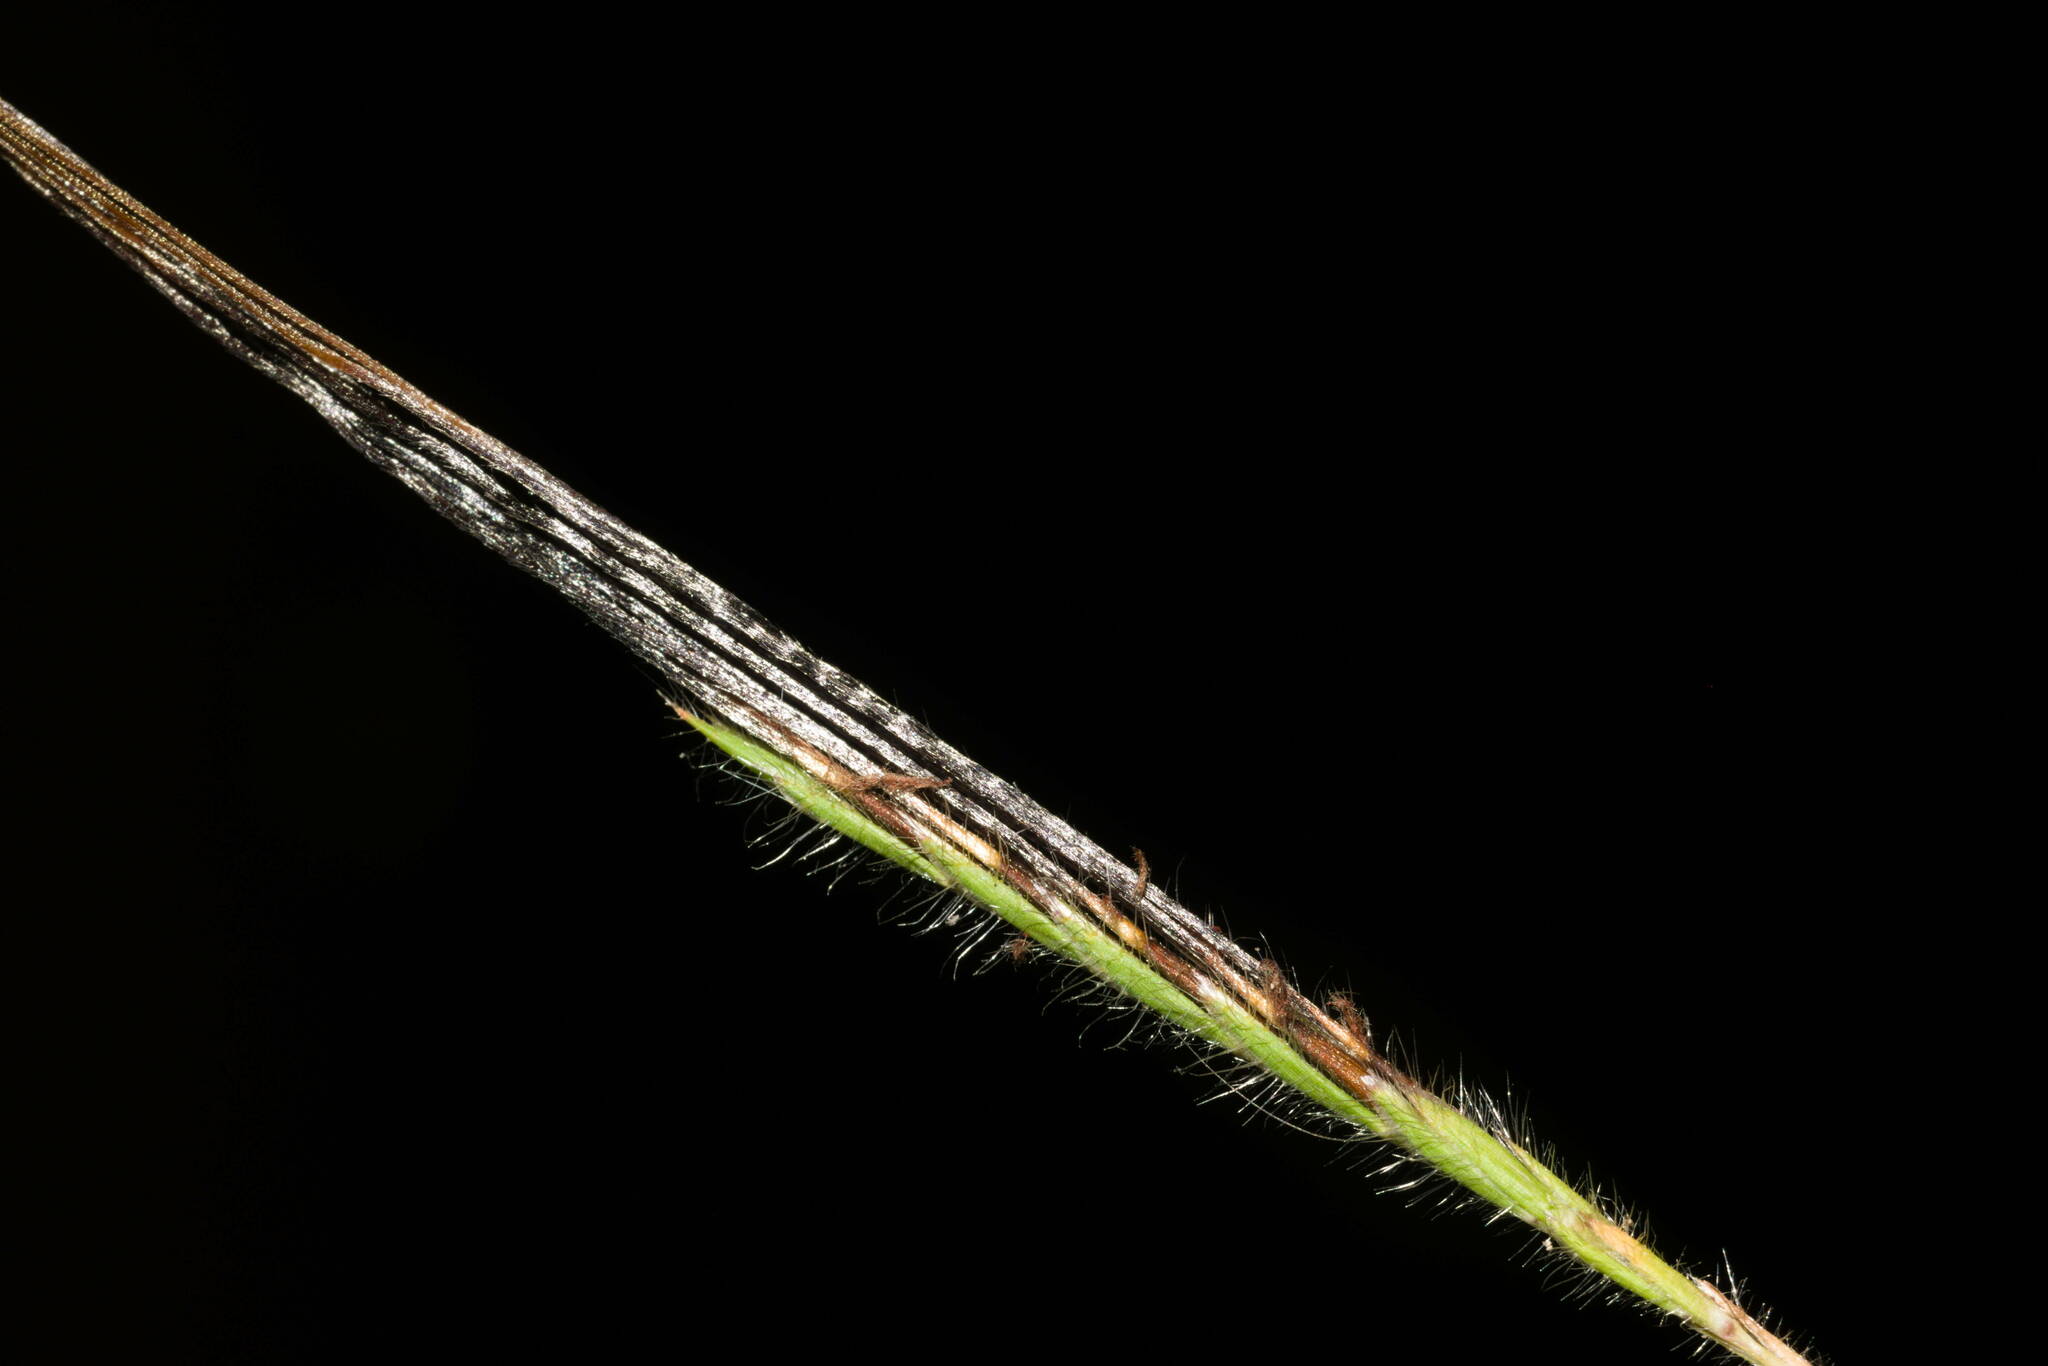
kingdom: Plantae
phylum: Tracheophyta
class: Liliopsida
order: Poales
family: Poaceae
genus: Heteropogon
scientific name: Heteropogon contortus
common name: Tanglehead
